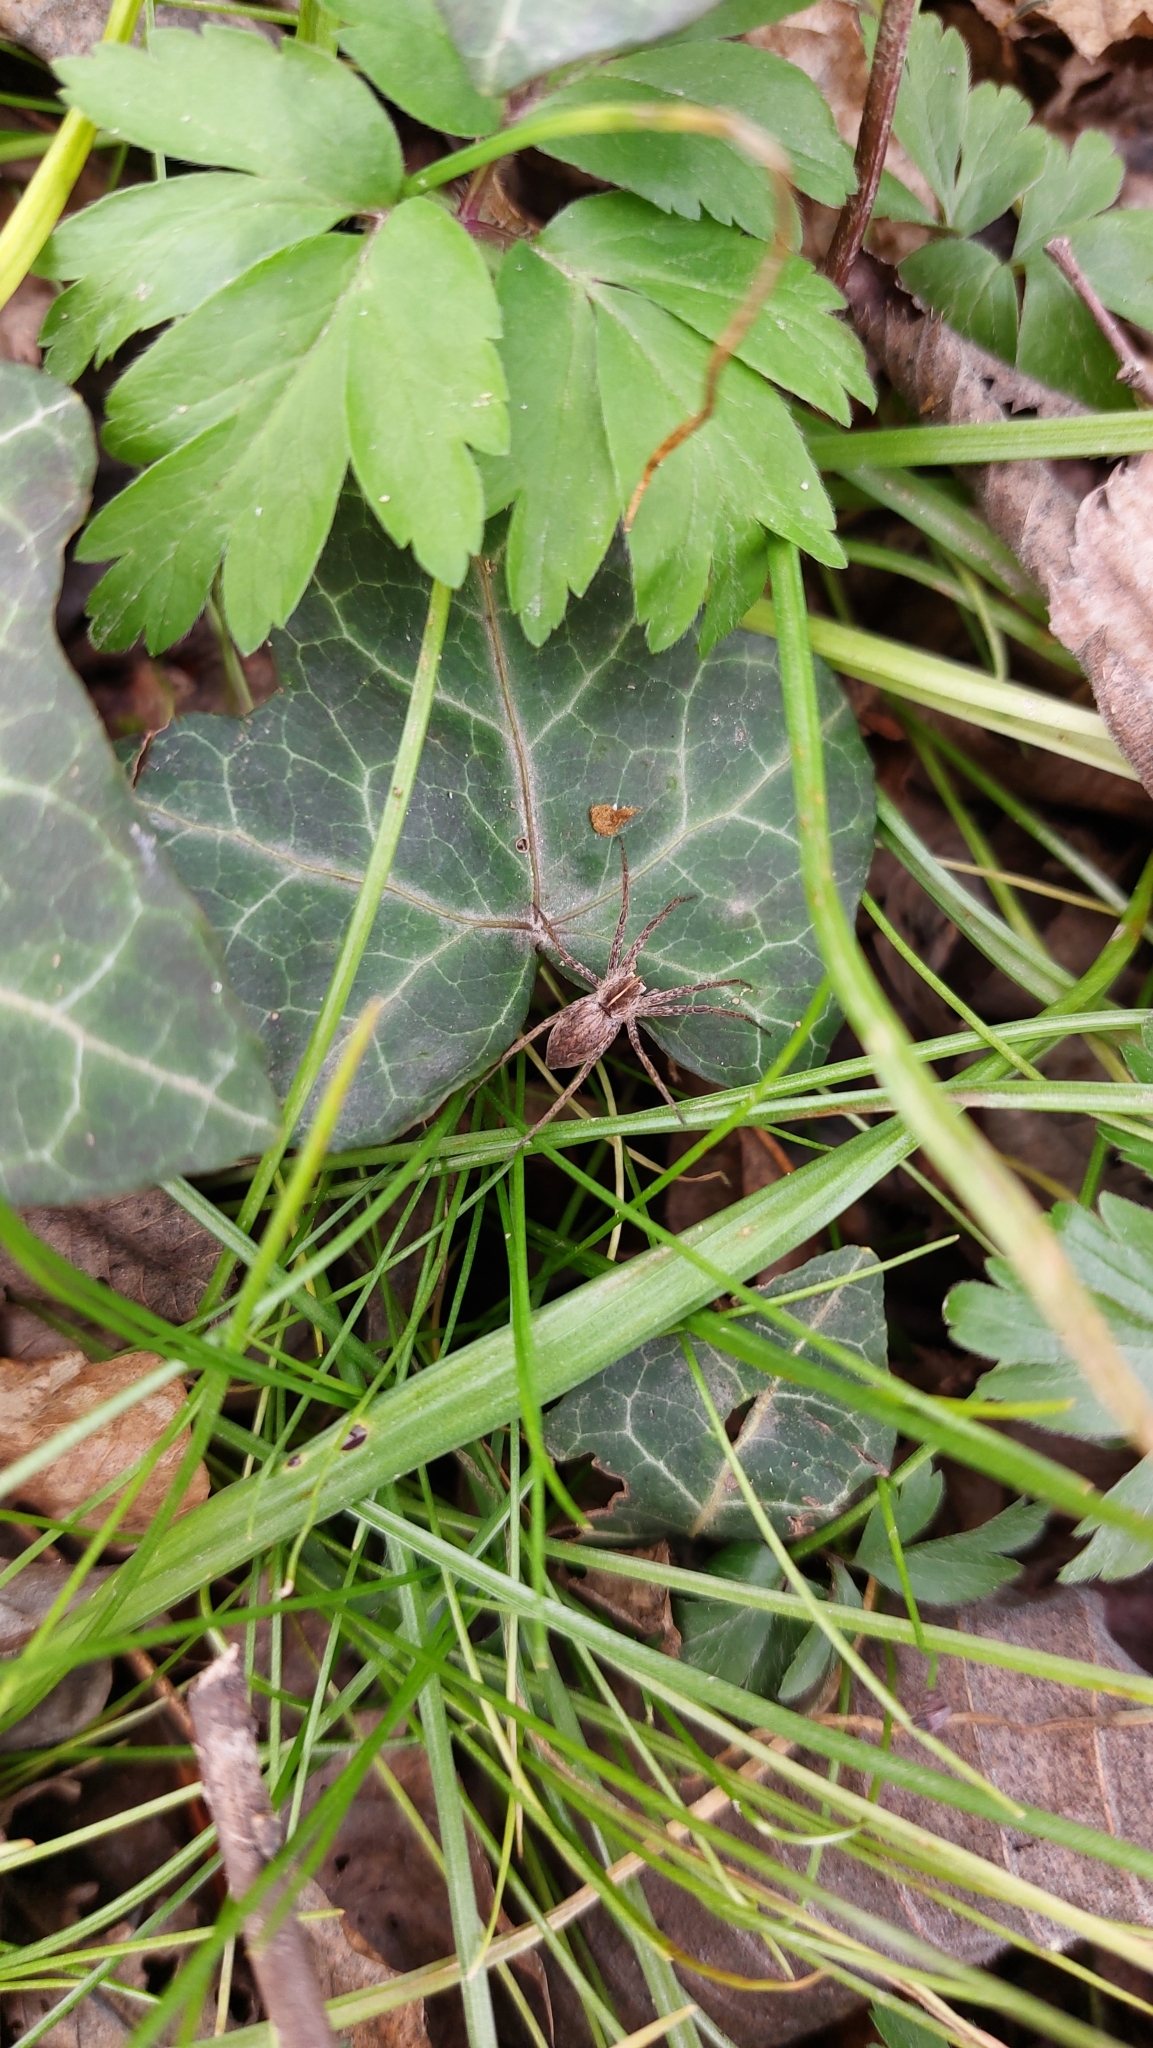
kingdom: Animalia
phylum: Arthropoda
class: Arachnida
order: Araneae
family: Pisauridae
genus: Pisaura
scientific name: Pisaura mirabilis
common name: Tent spider
